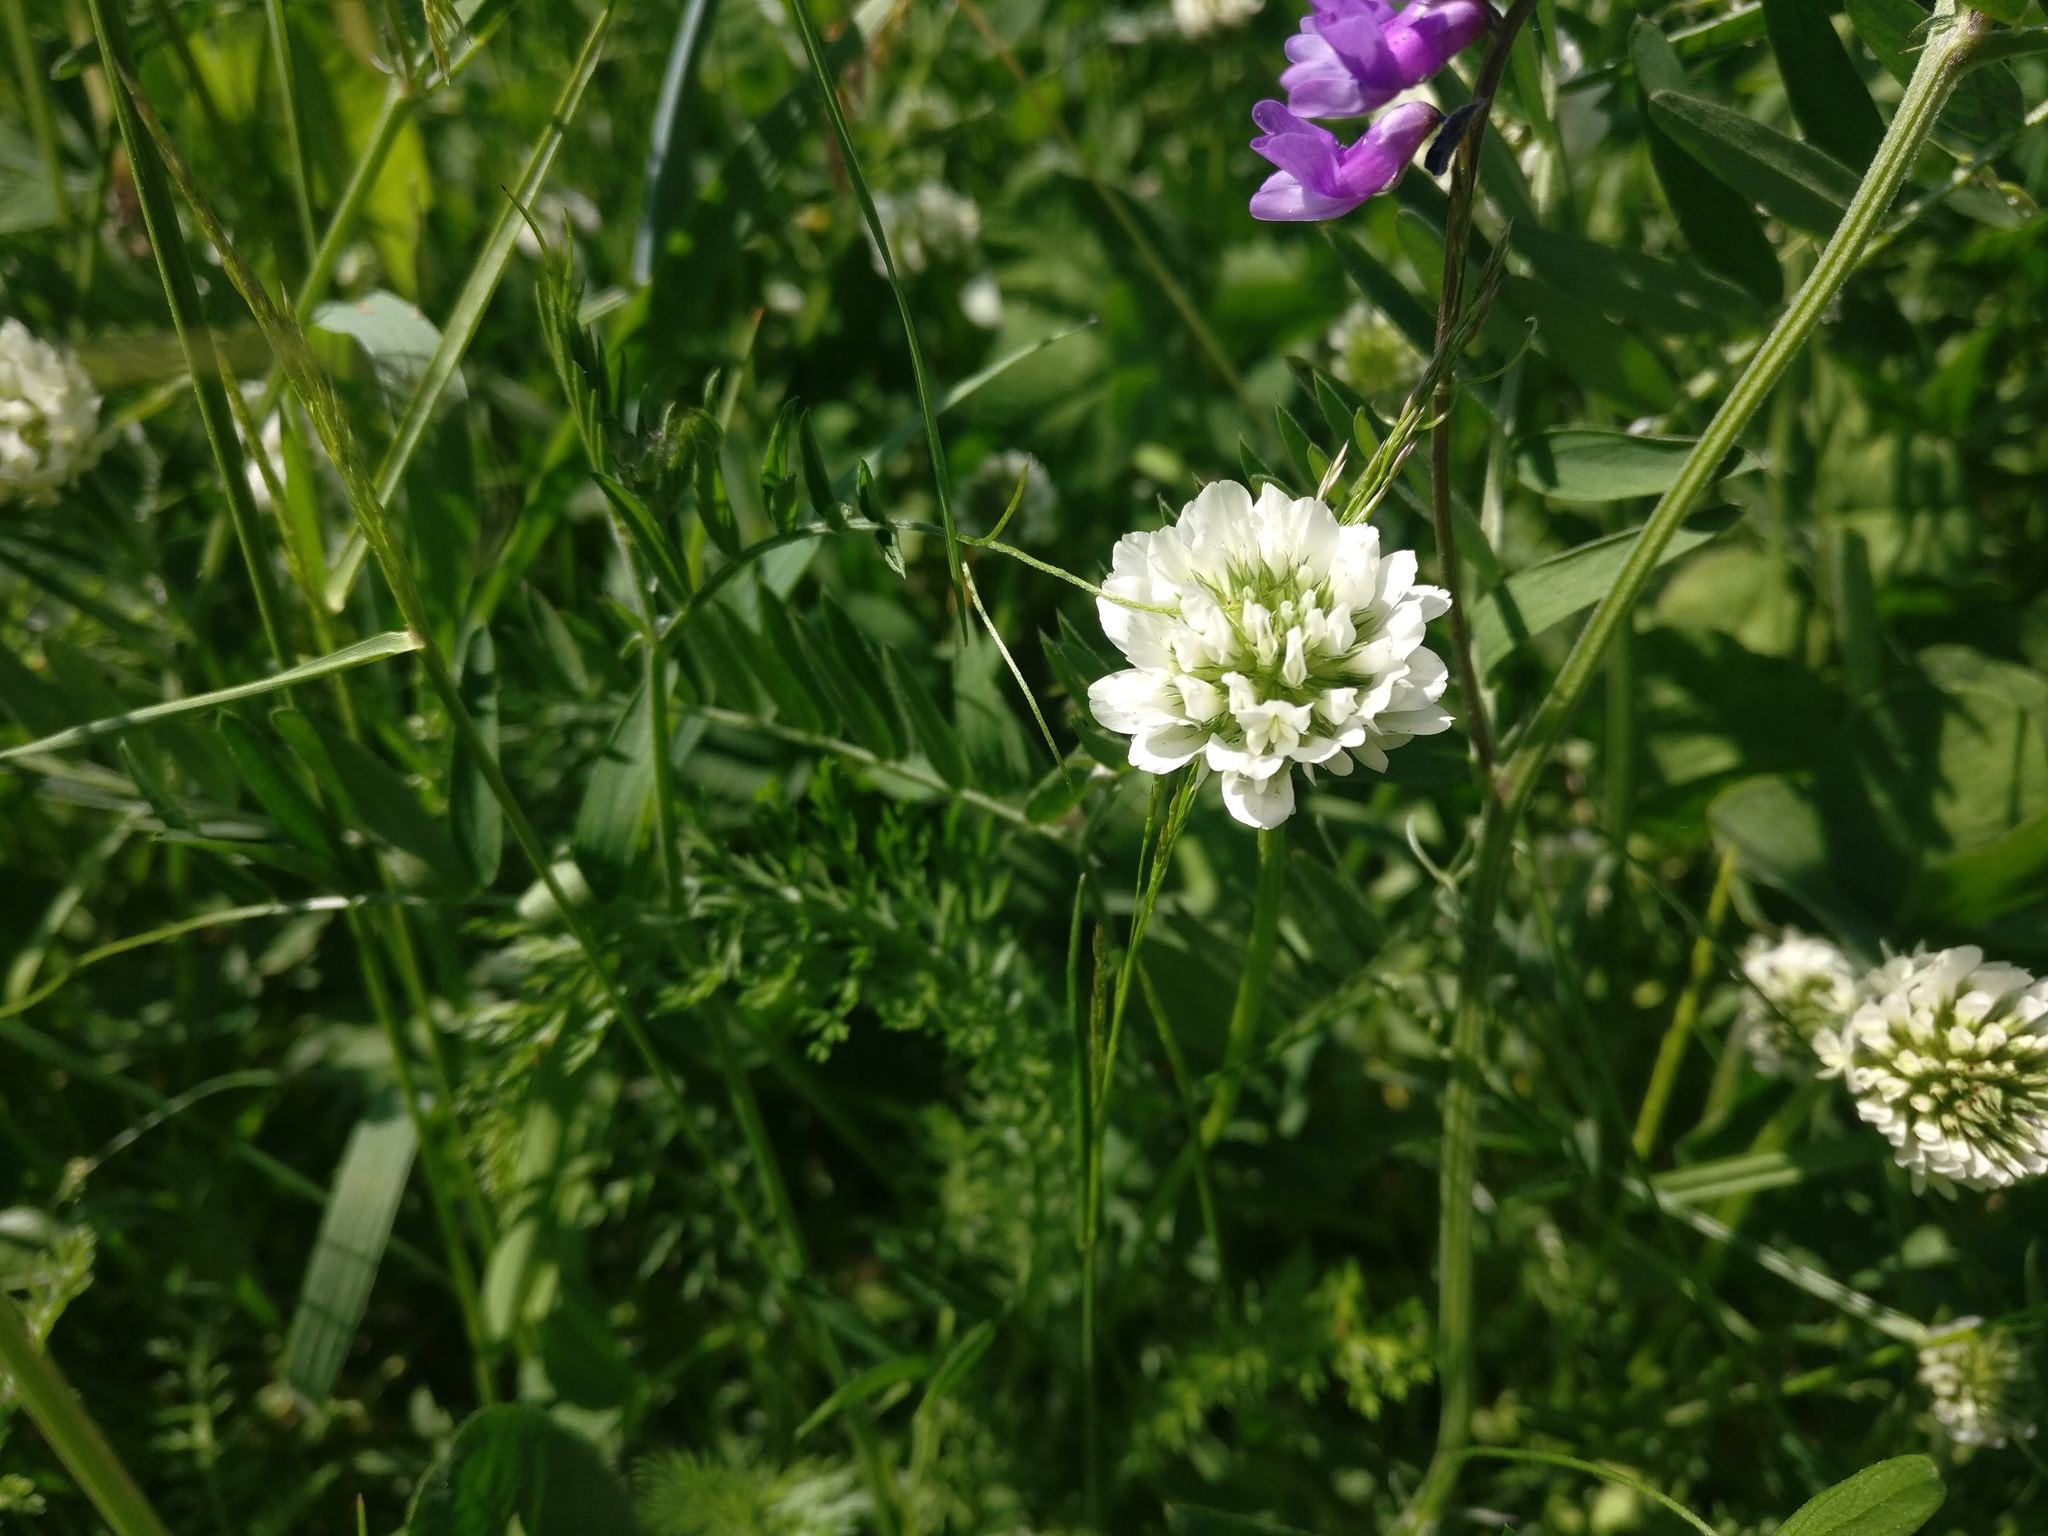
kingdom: Plantae
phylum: Tracheophyta
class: Magnoliopsida
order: Fabales
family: Fabaceae
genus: Trifolium
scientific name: Trifolium repens
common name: White clover
